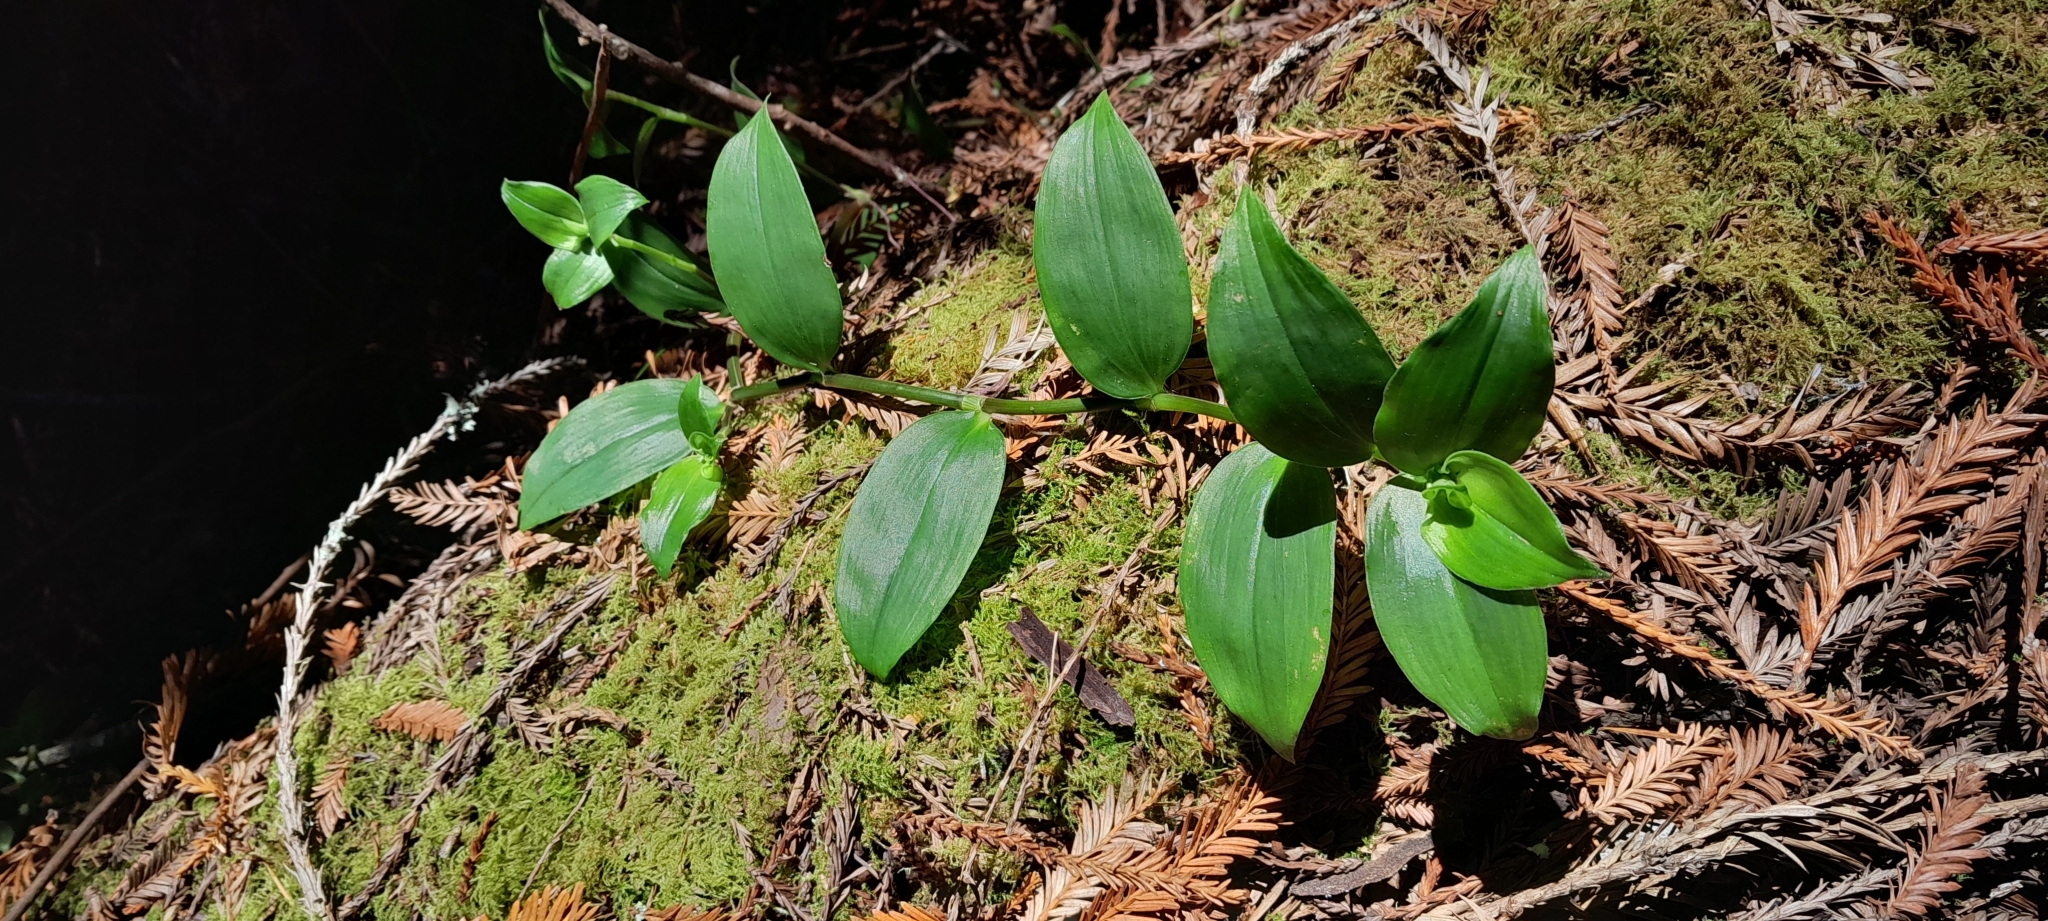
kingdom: Plantae
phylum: Tracheophyta
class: Liliopsida
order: Commelinales
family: Commelinaceae
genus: Tradescantia
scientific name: Tradescantia fluminensis
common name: Wandering-jew
